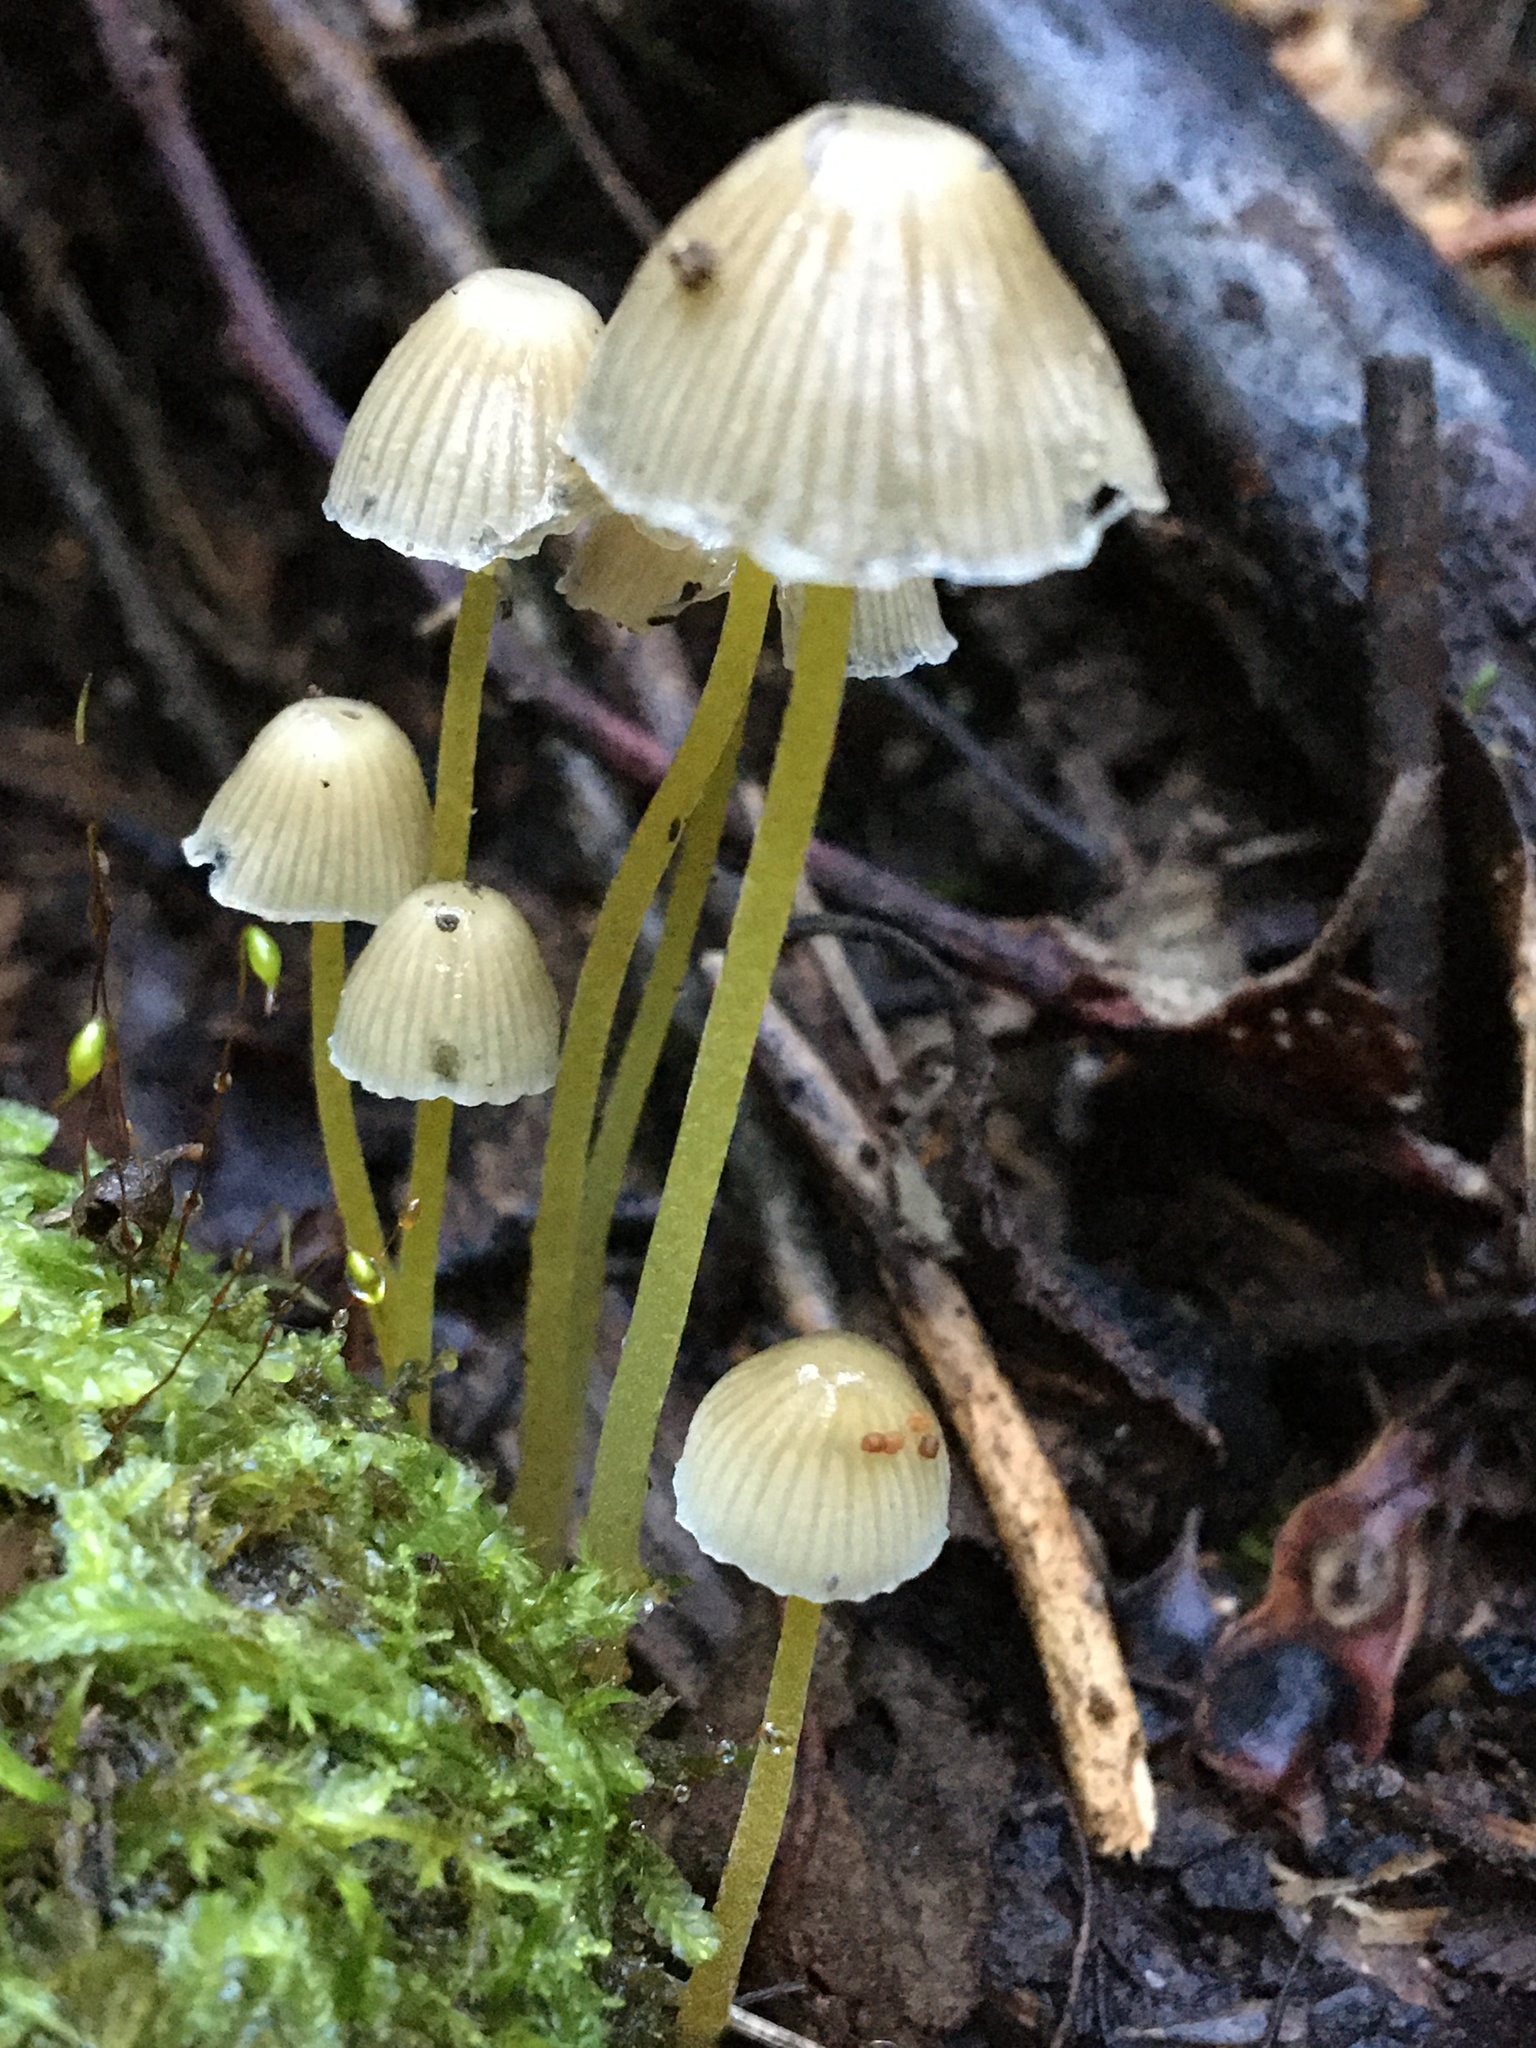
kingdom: Fungi
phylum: Basidiomycota
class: Agaricomycetes
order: Agaricales
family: Mycenaceae
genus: Mycena
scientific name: Mycena epipterygia
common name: Yellowleg bonnet
